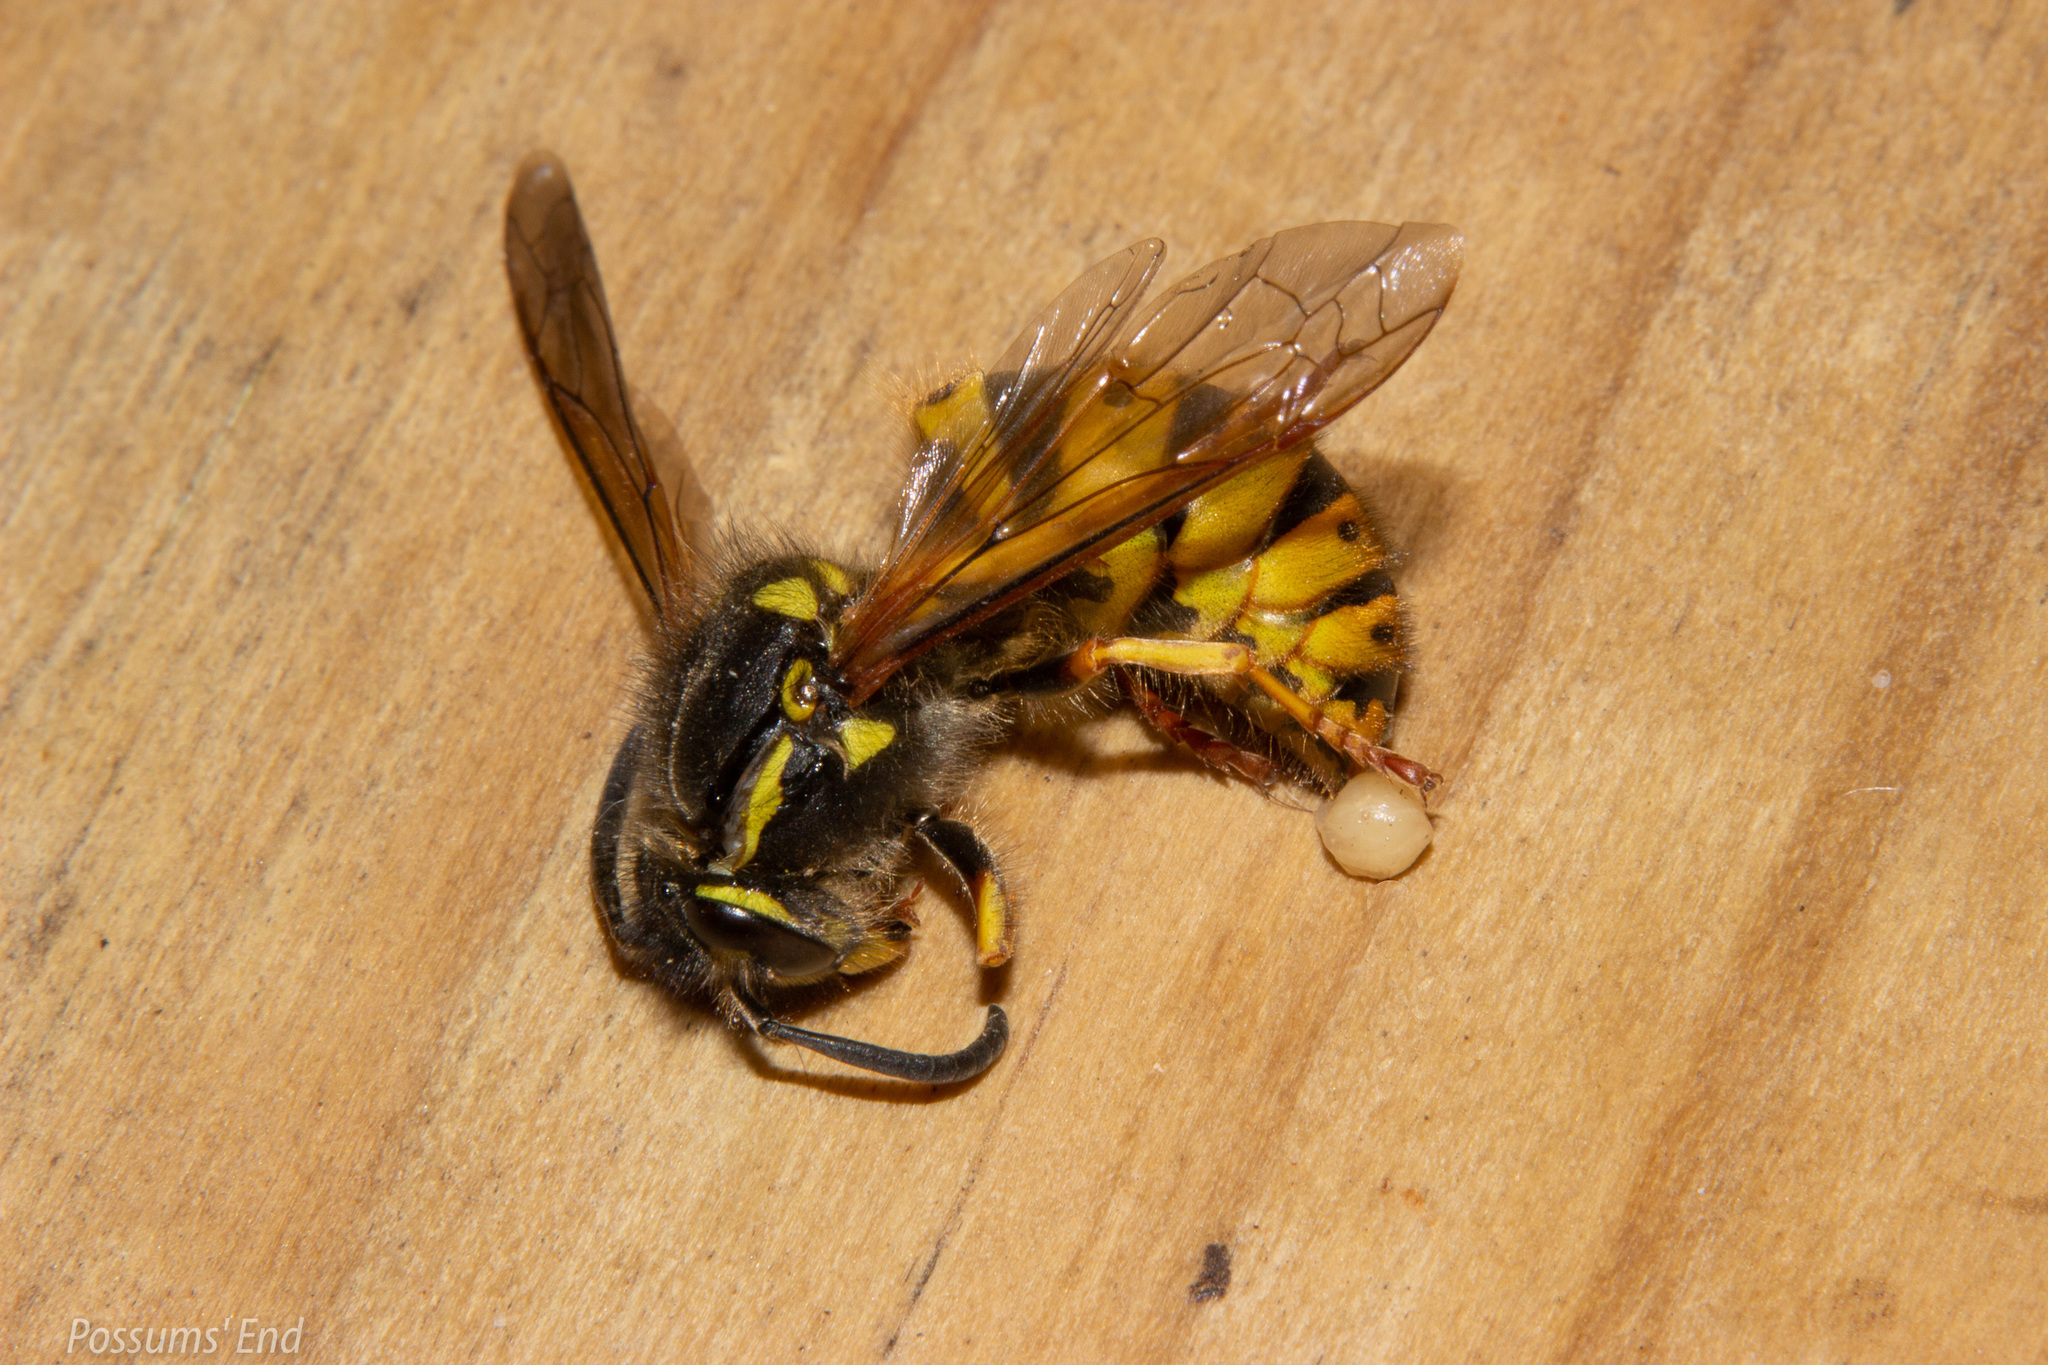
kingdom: Animalia
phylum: Arthropoda
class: Insecta
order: Hymenoptera
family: Vespidae
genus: Vespula
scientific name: Vespula germanica
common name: German wasp
